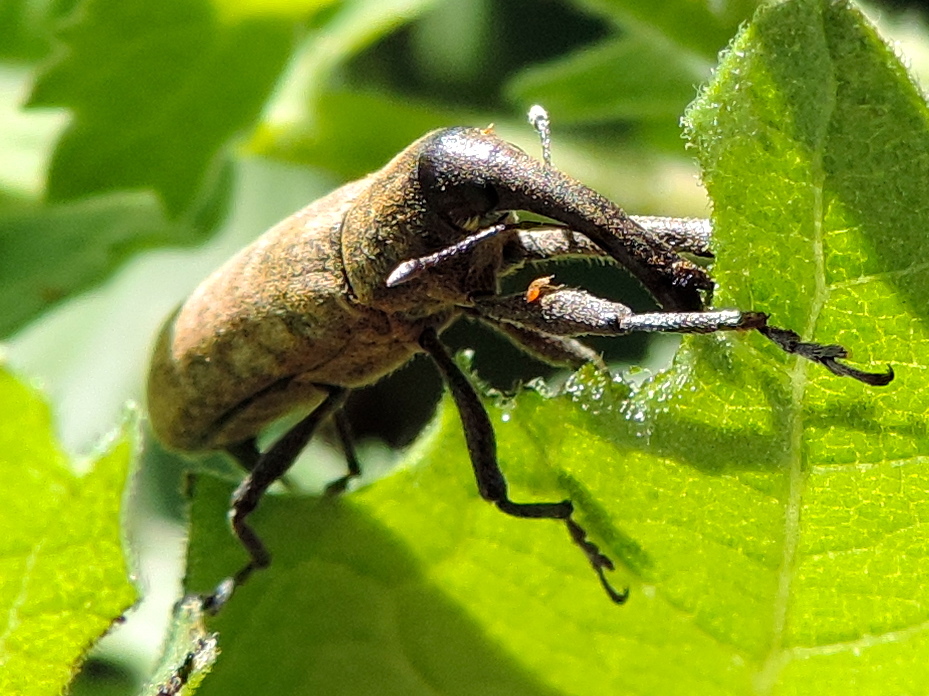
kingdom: Animalia
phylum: Arthropoda
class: Insecta
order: Coleoptera
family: Curculionidae
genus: Lixus
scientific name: Lixus
